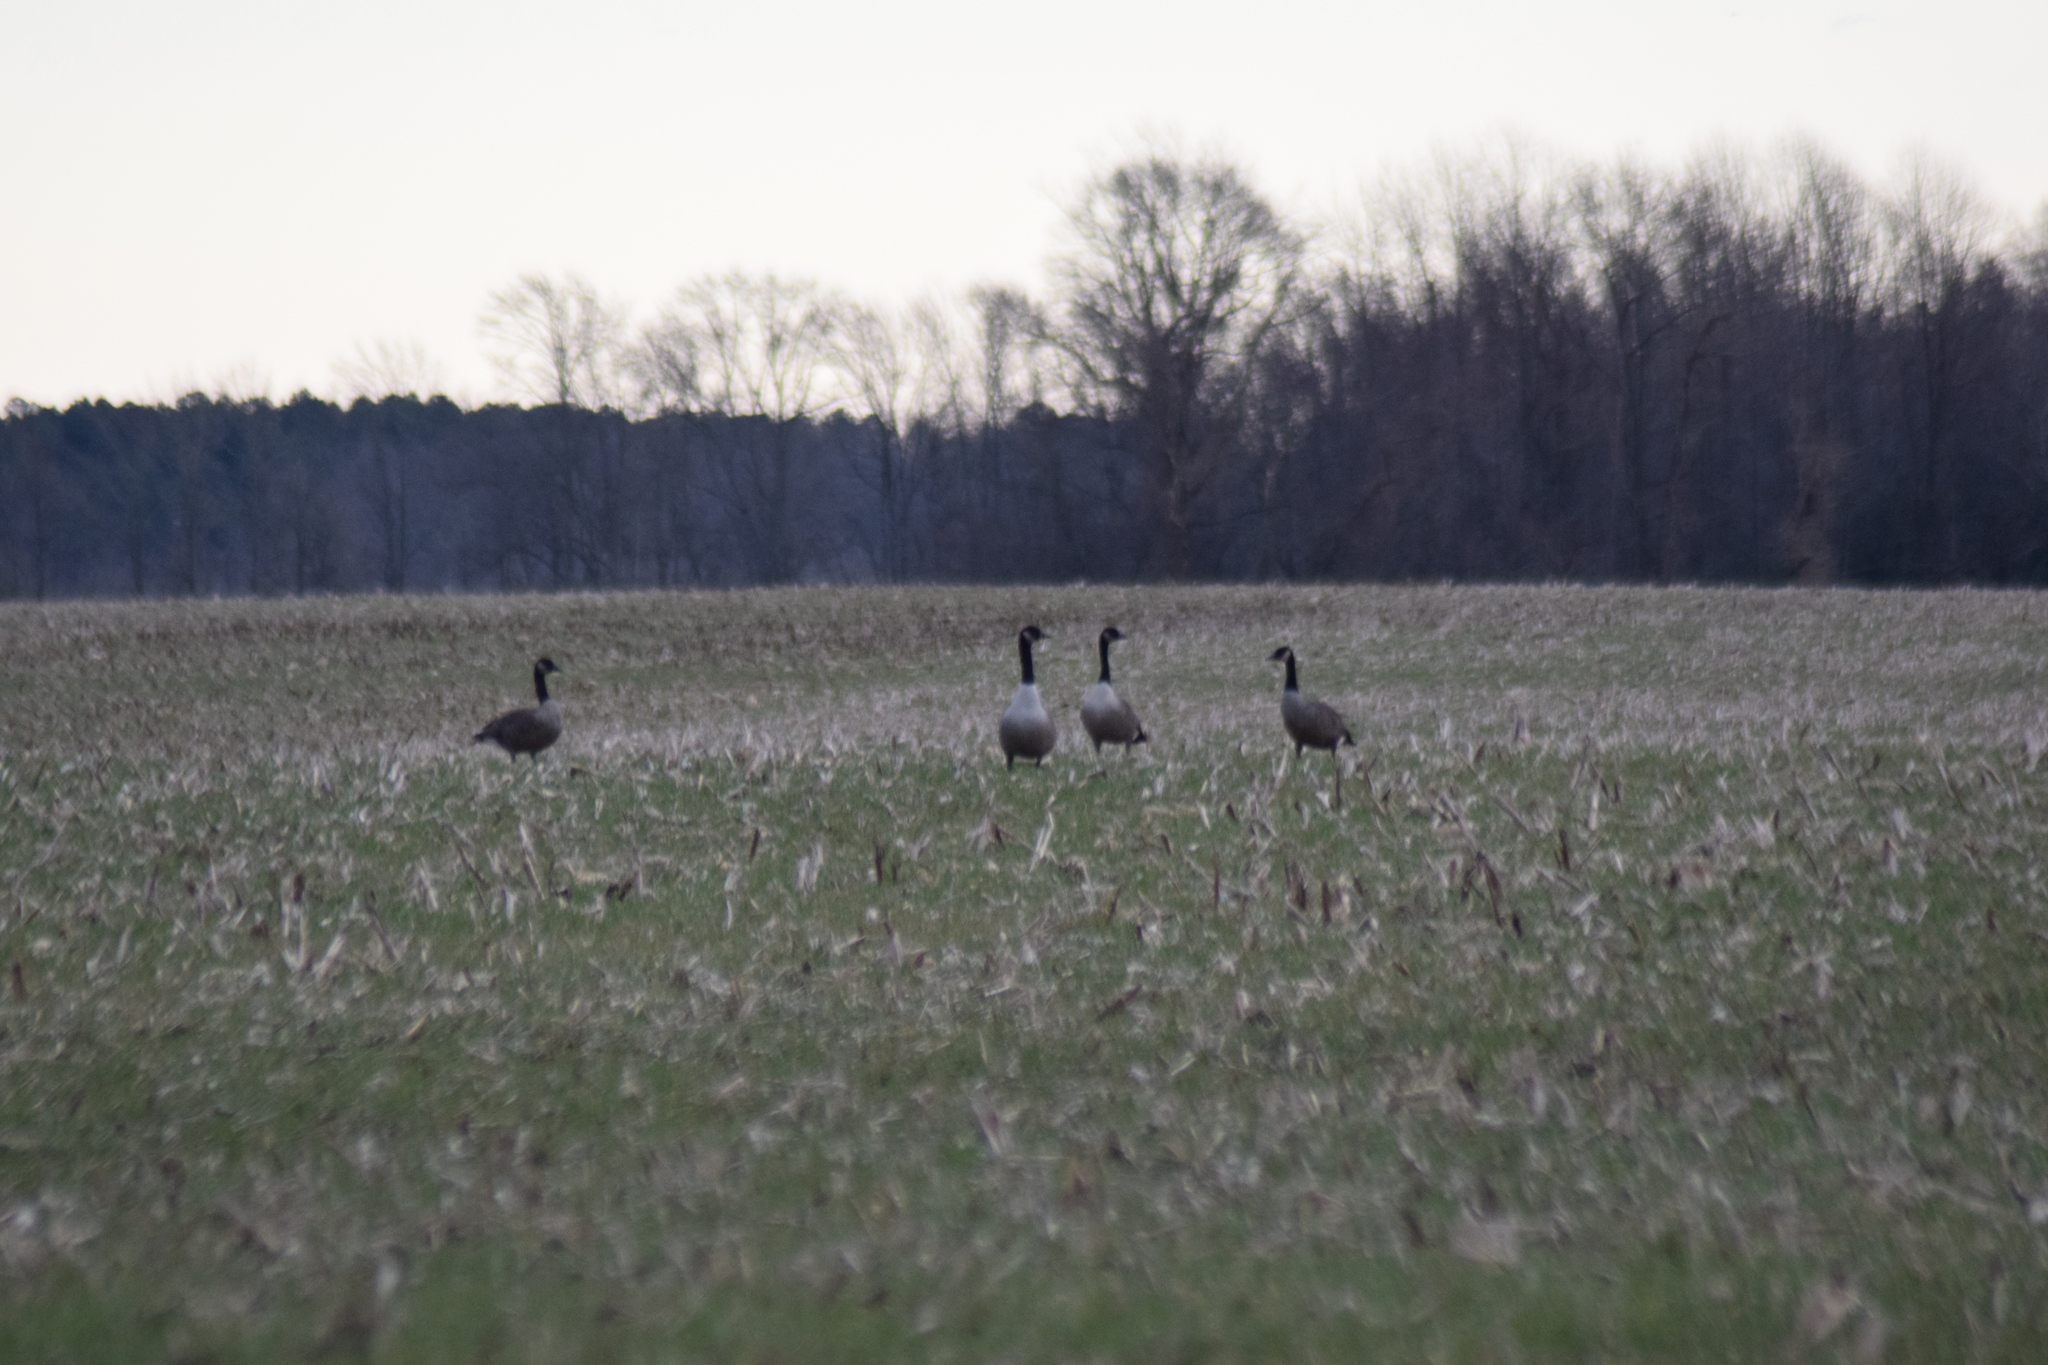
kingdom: Animalia
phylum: Chordata
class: Aves
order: Anseriformes
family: Anatidae
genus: Branta
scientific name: Branta canadensis
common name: Canada goose
